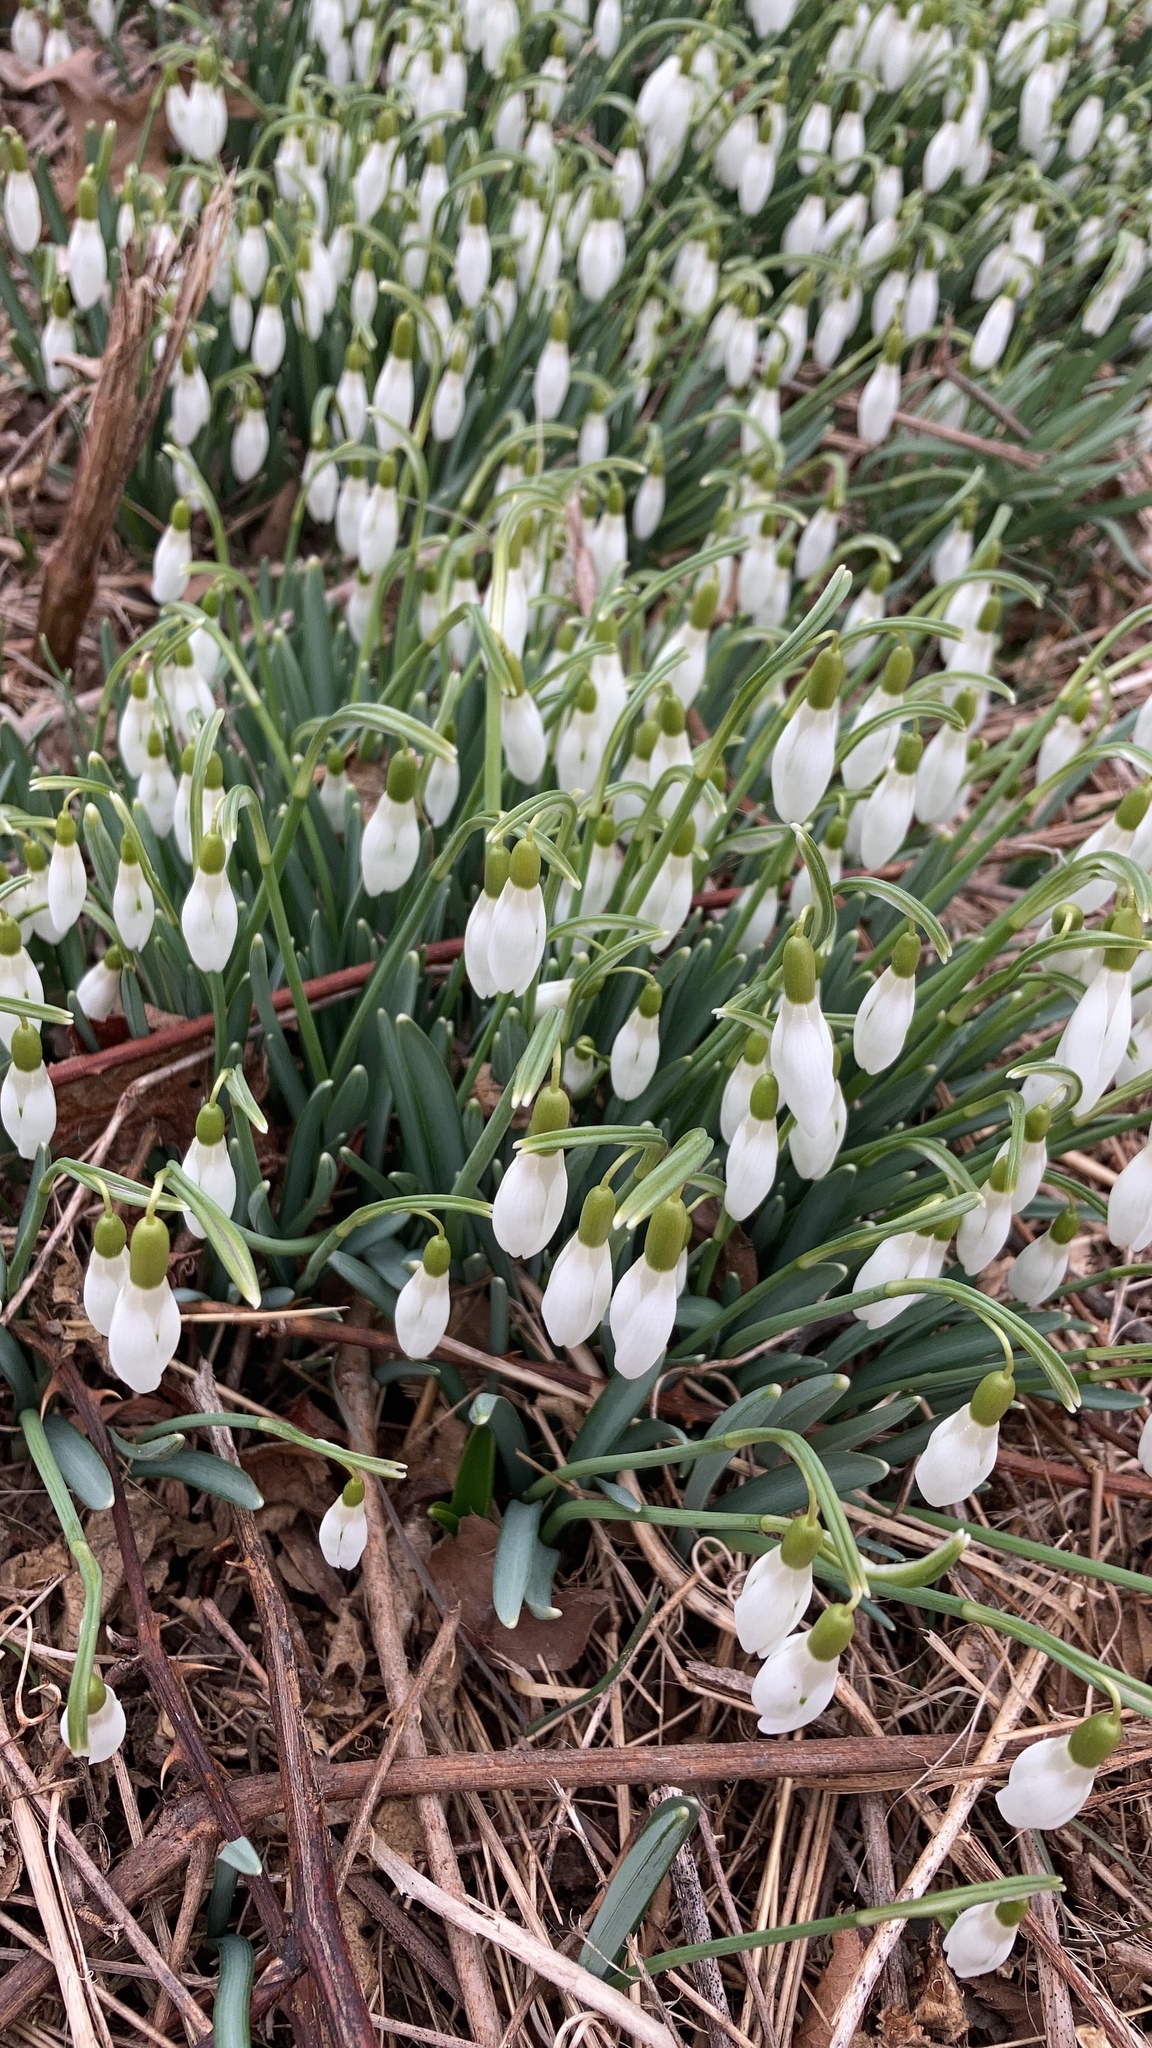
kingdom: Plantae
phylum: Tracheophyta
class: Liliopsida
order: Asparagales
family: Amaryllidaceae
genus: Galanthus
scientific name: Galanthus nivalis
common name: Snowdrop
